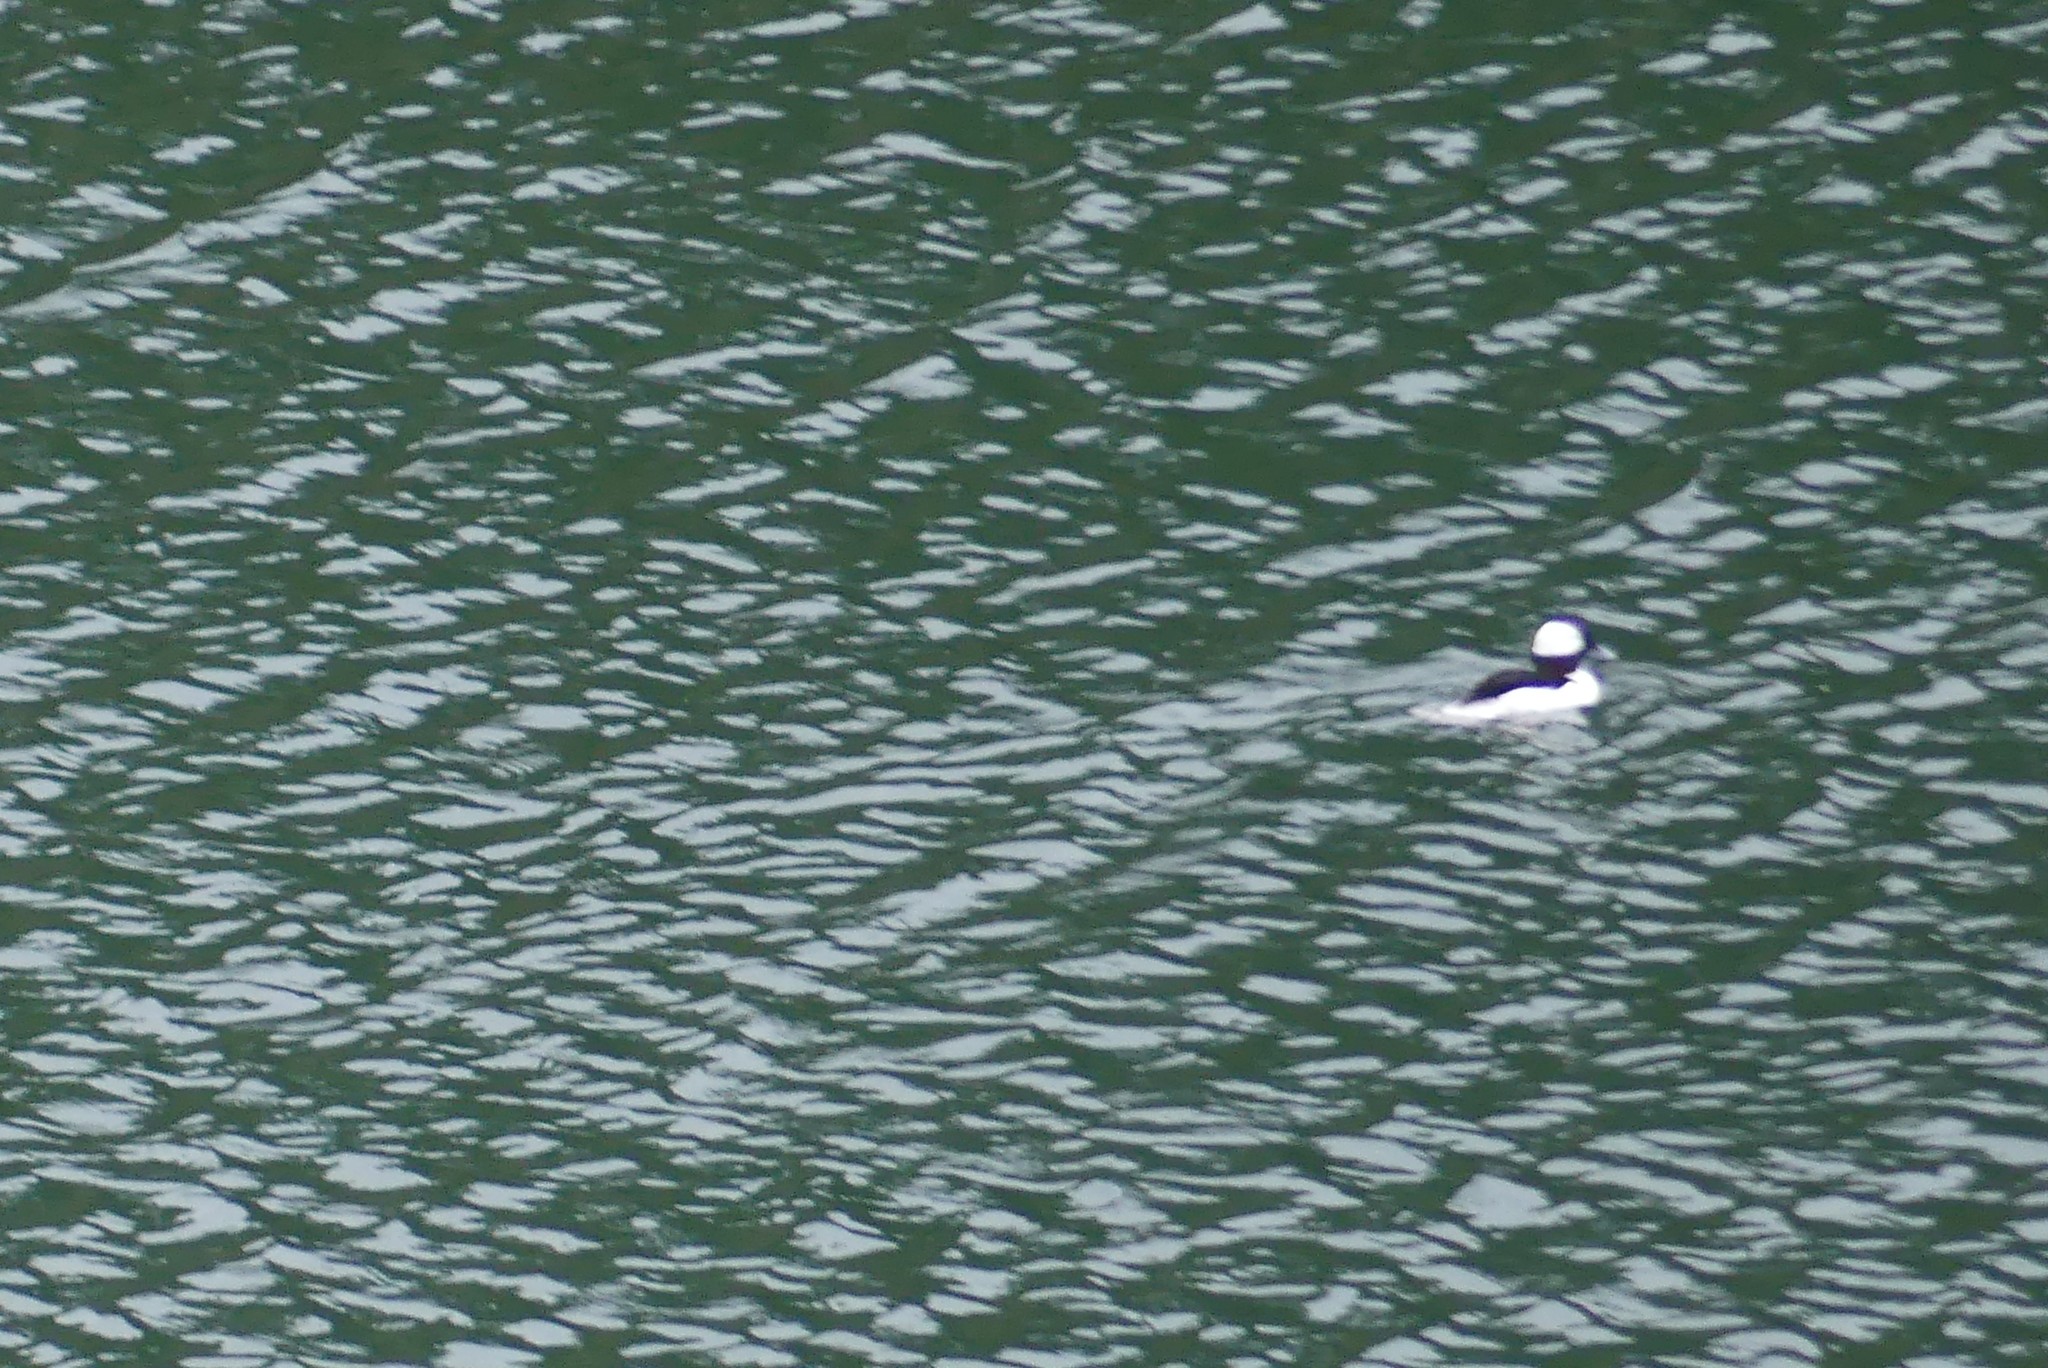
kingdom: Animalia
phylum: Chordata
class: Aves
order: Anseriformes
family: Anatidae
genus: Bucephala
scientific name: Bucephala albeola
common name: Bufflehead
